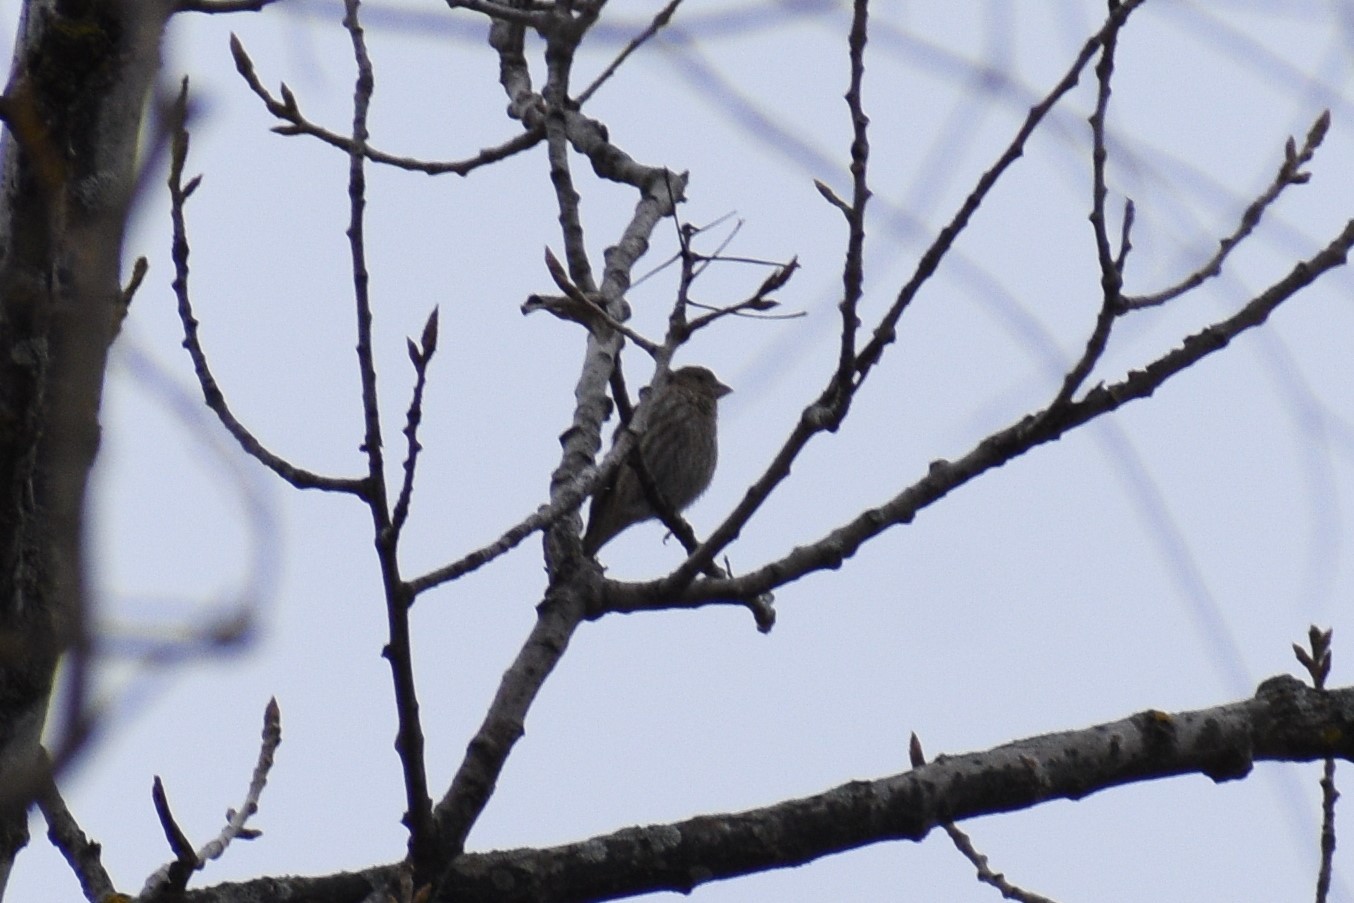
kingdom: Animalia
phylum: Chordata
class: Aves
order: Passeriformes
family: Fringillidae
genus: Haemorhous
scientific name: Haemorhous mexicanus
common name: House finch
